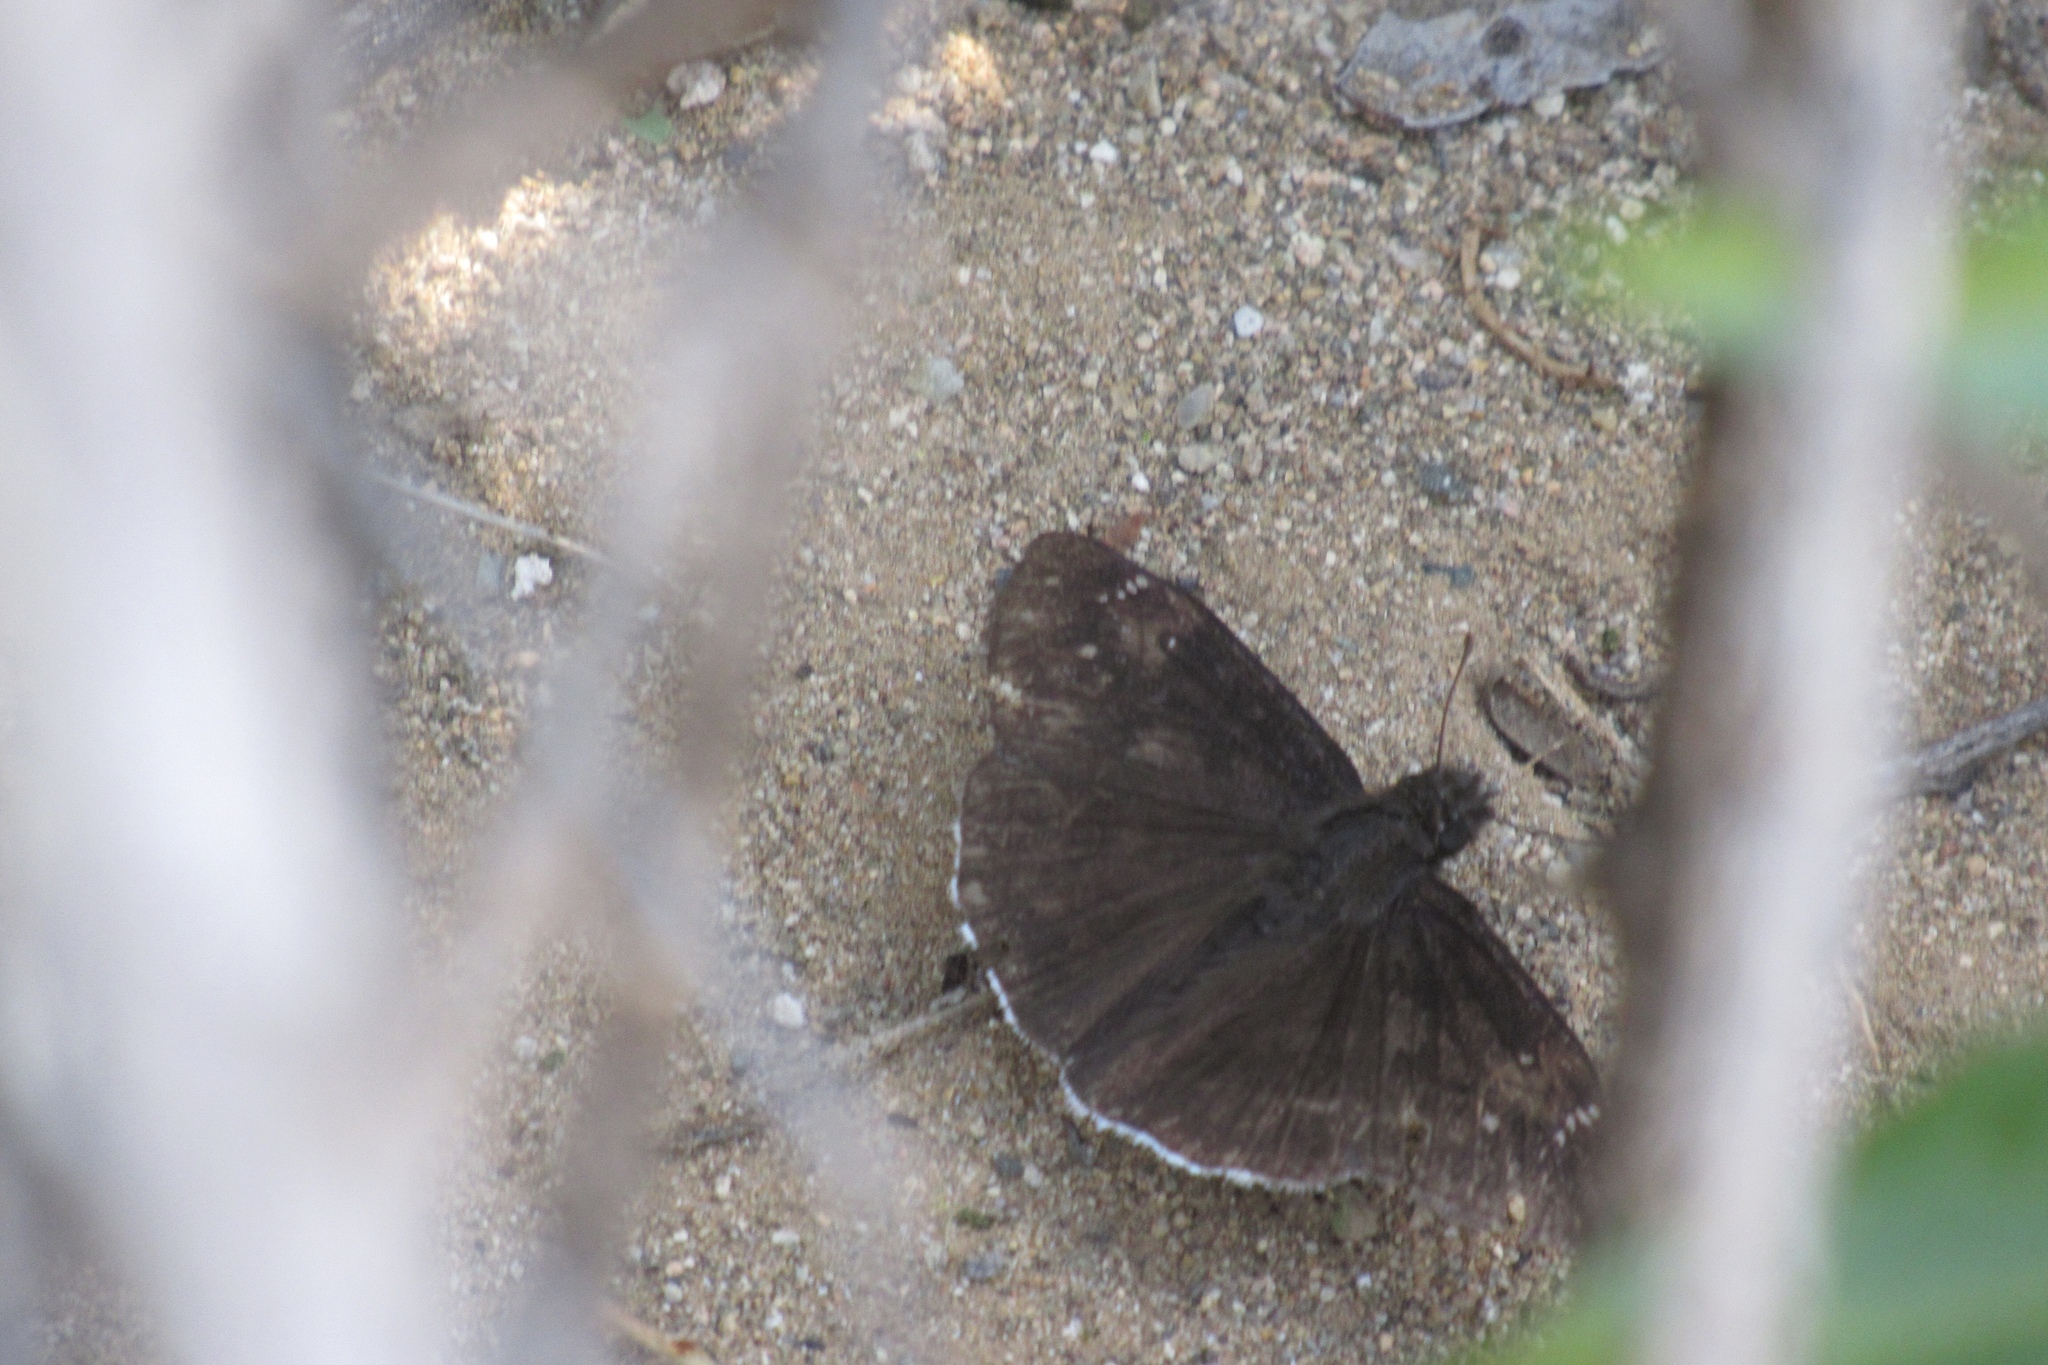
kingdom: Animalia
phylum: Arthropoda
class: Insecta
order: Lepidoptera
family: Hesperiidae
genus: Erynnis
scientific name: Erynnis funeralis
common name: Funereal duskywing
